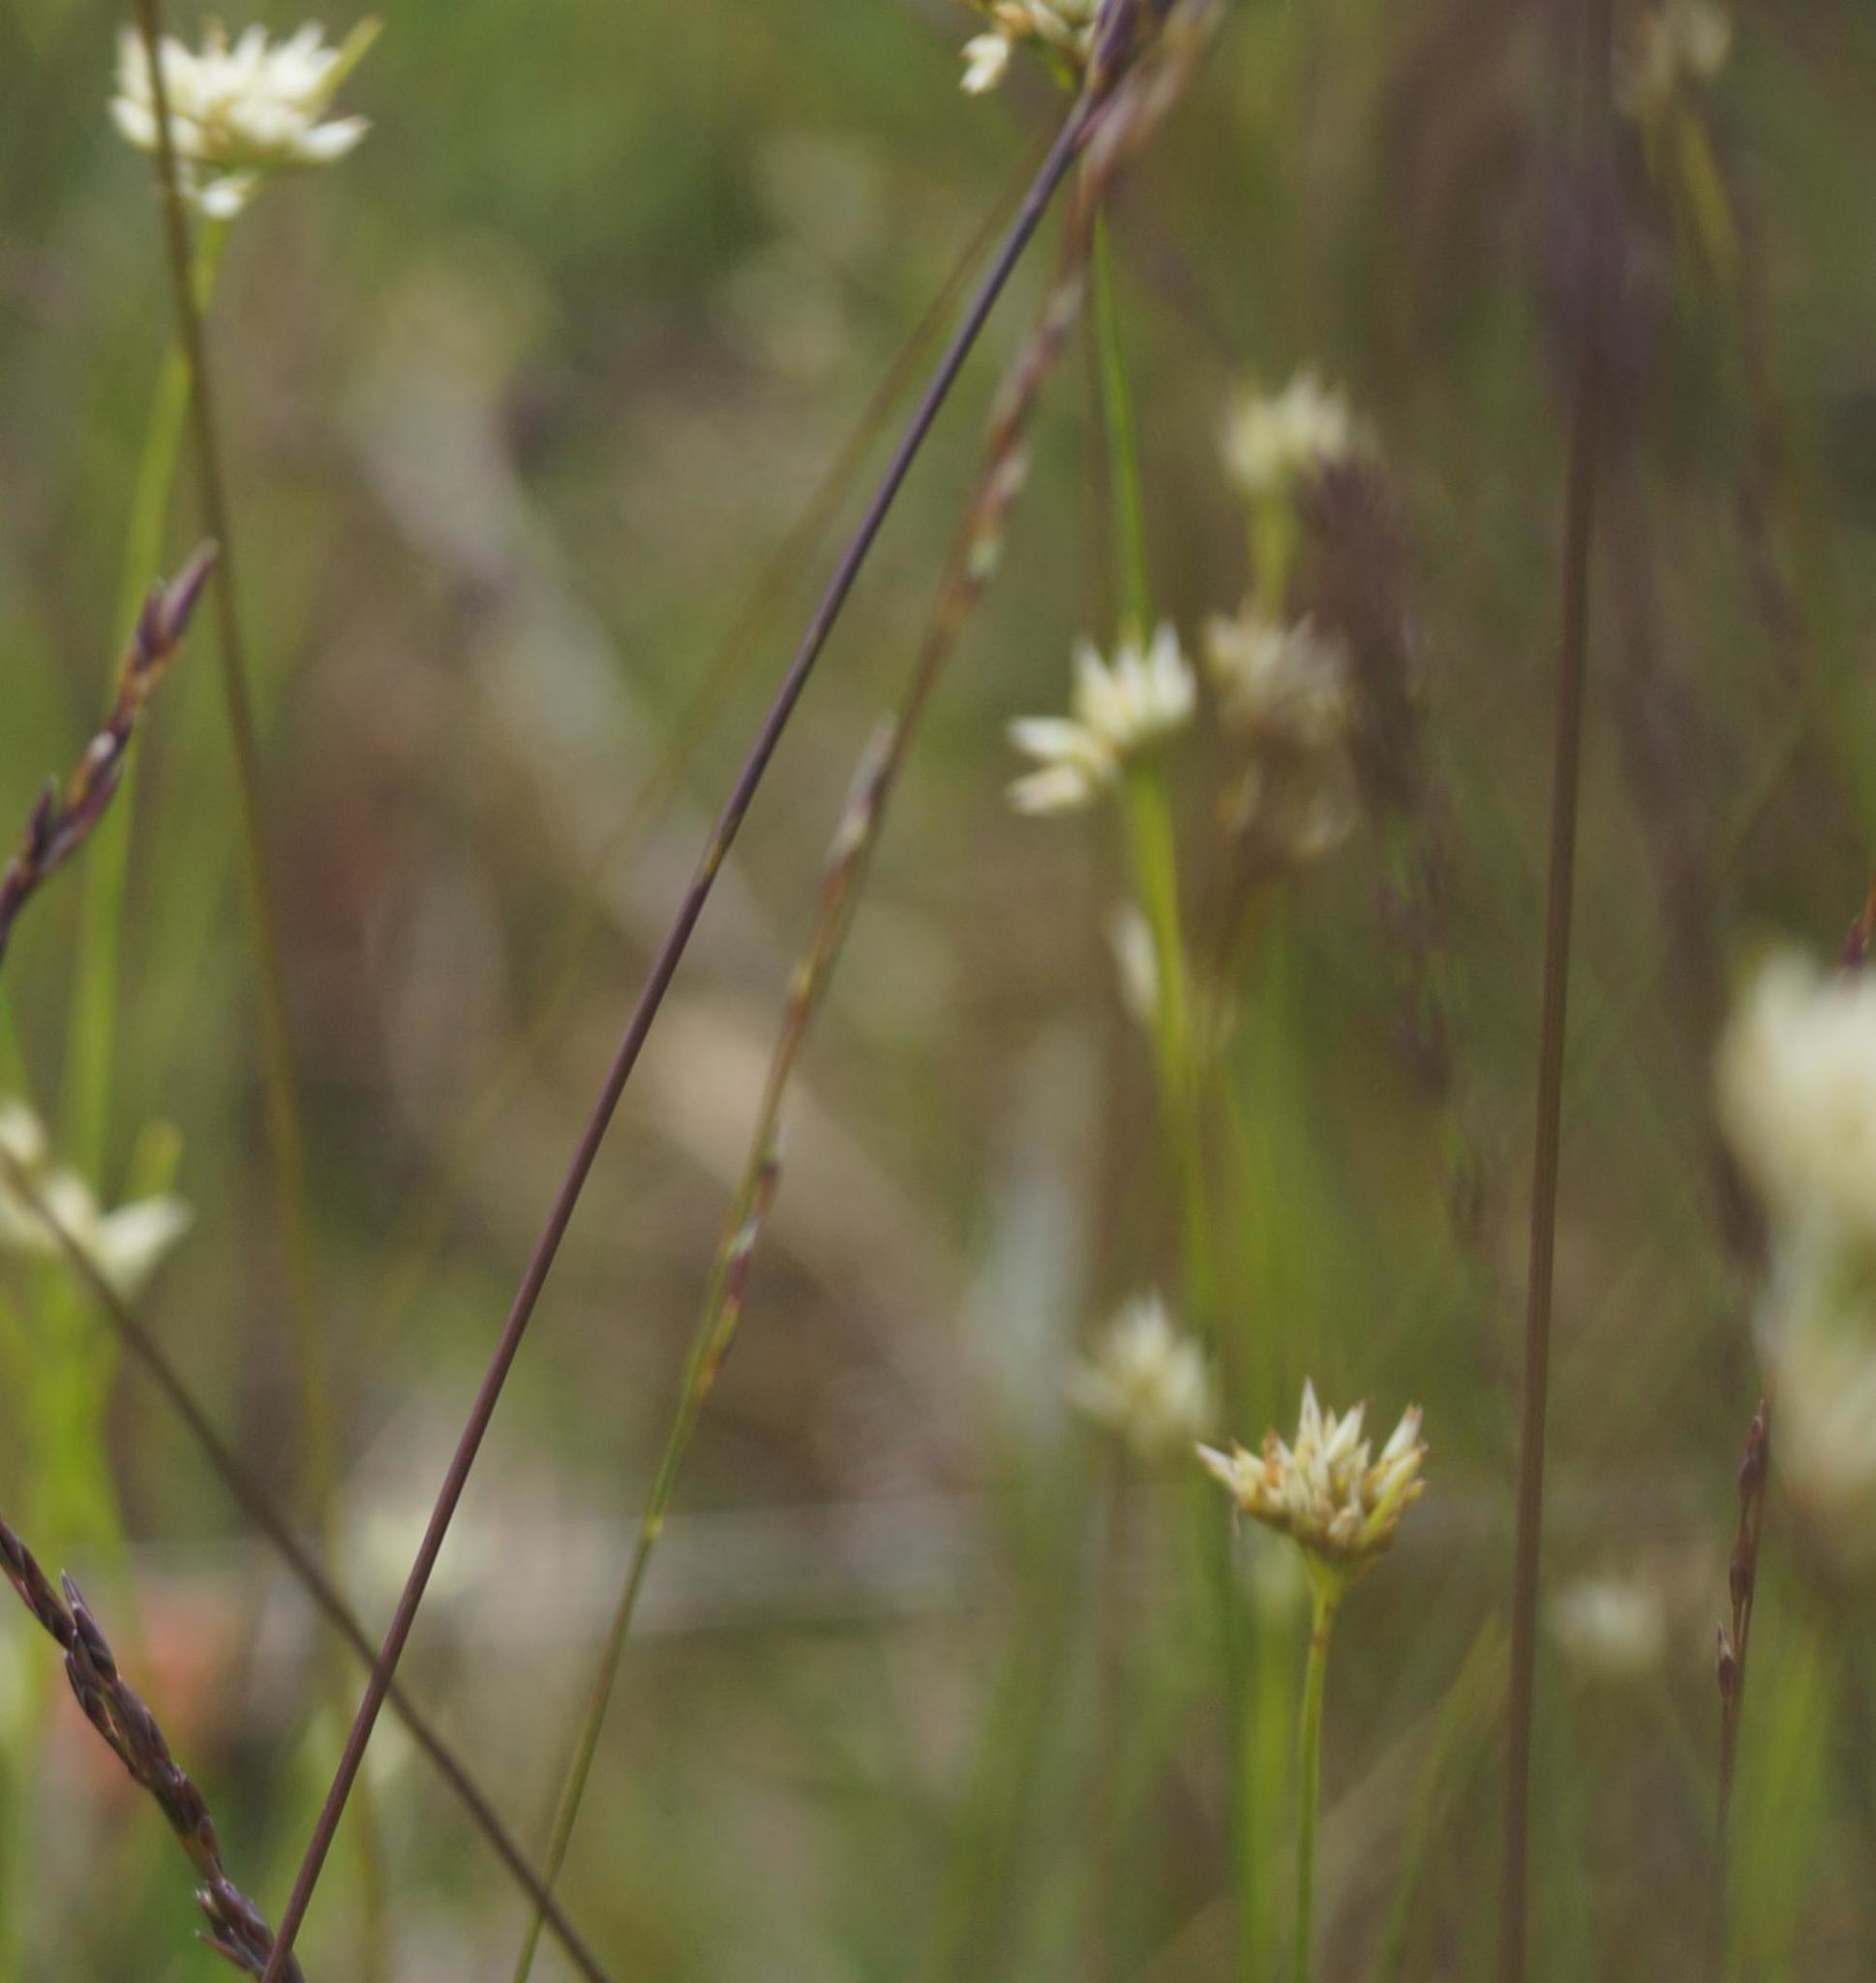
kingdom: Plantae
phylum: Tracheophyta
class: Liliopsida
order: Poales
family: Cyperaceae
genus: Rhynchospora
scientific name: Rhynchospora alba
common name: White beak-sedge
